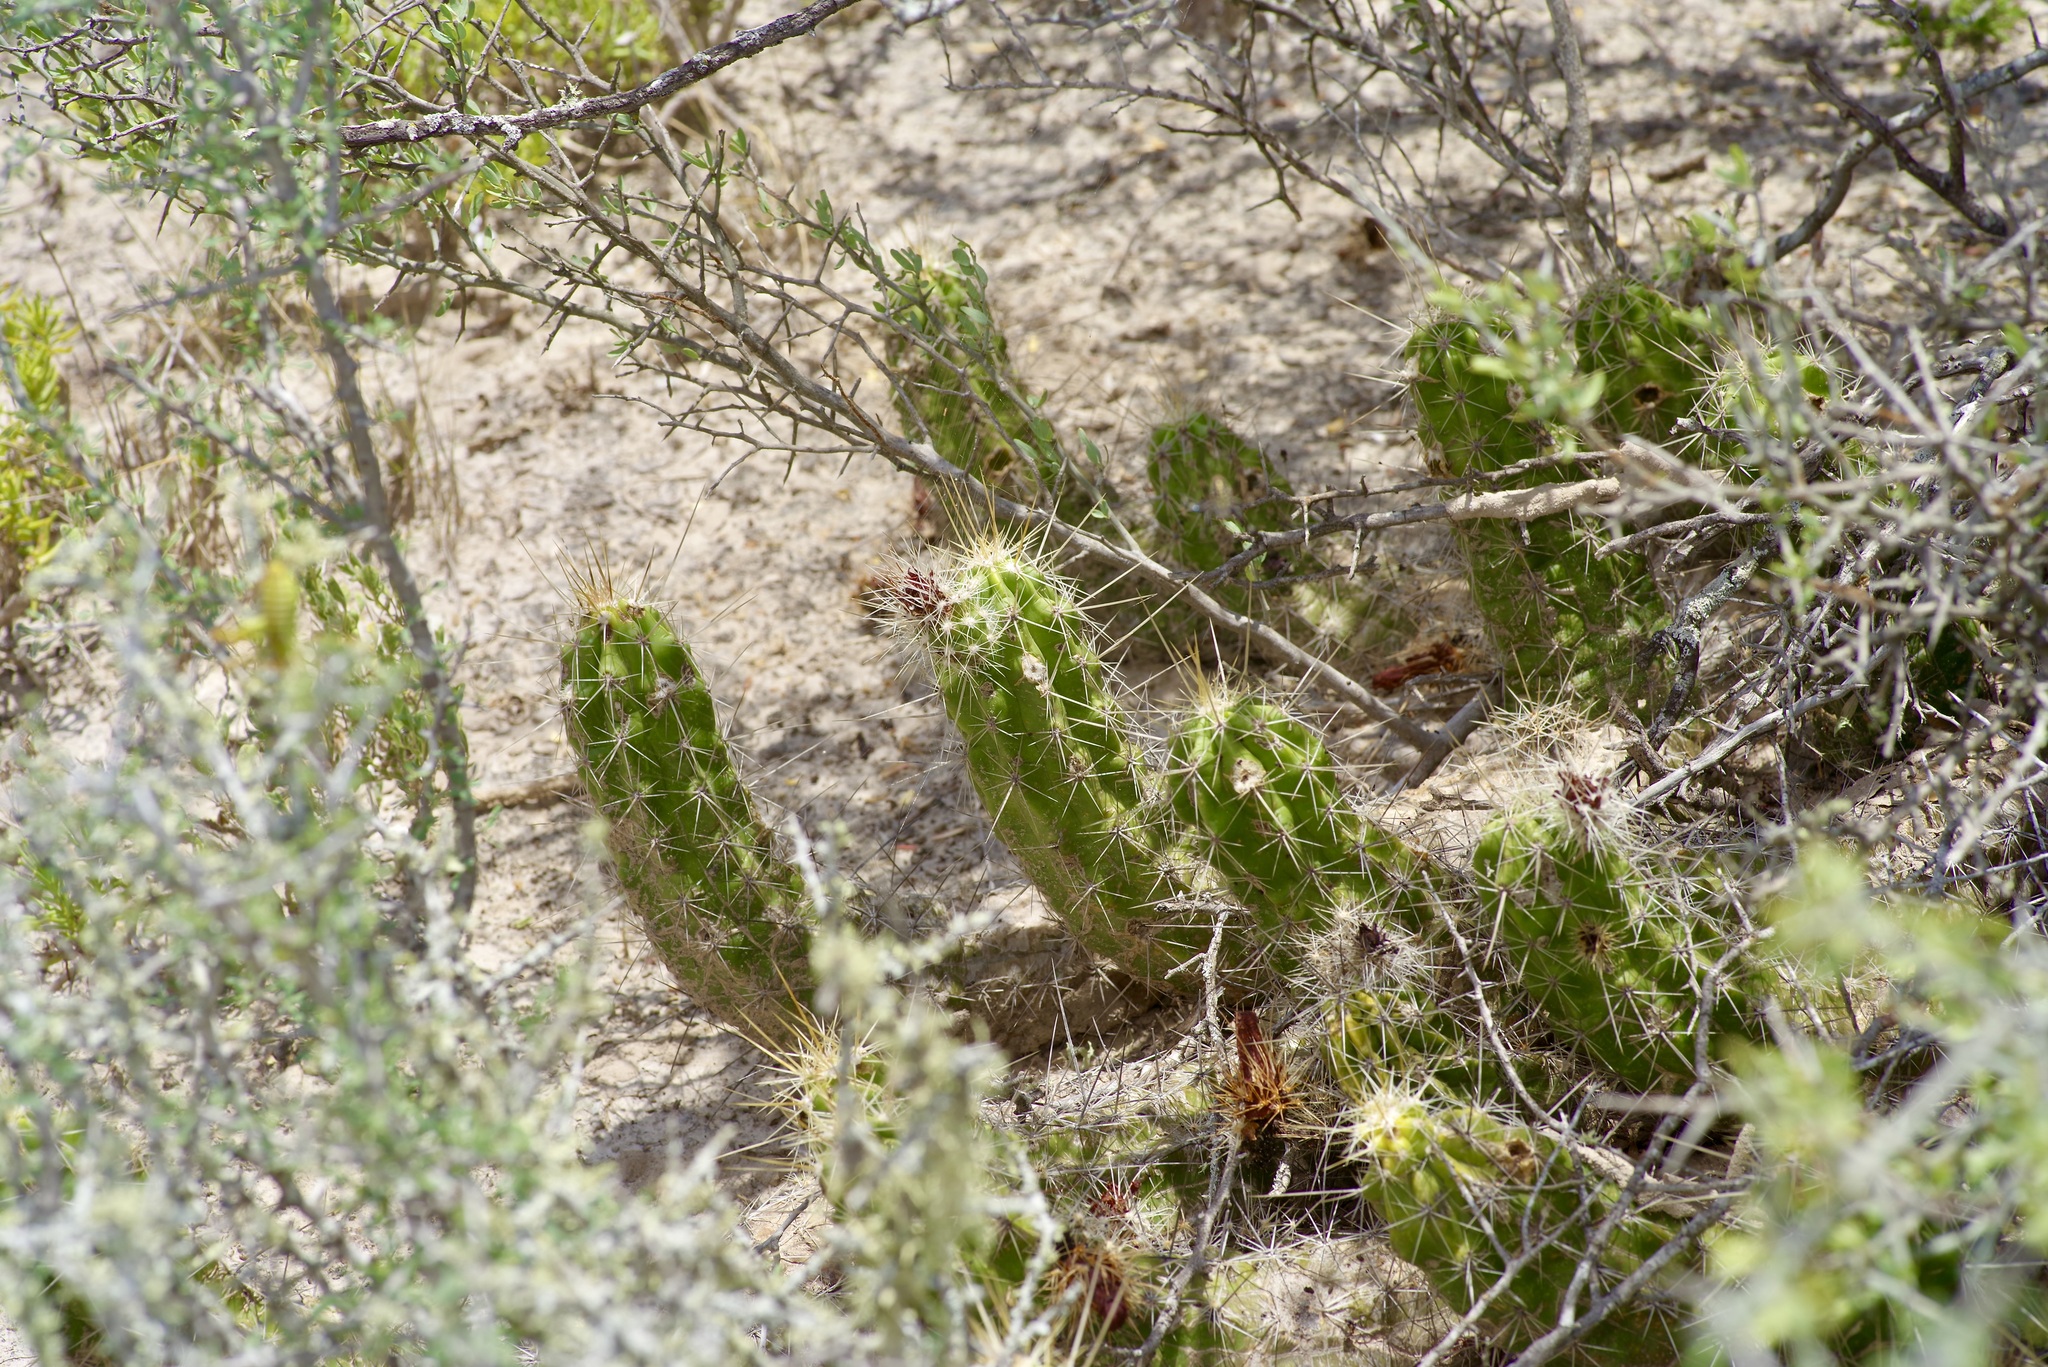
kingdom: Plantae
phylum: Tracheophyta
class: Magnoliopsida
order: Caryophyllales
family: Cactaceae
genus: Echinocereus
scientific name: Echinocereus enneacanthus
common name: Pitaya
